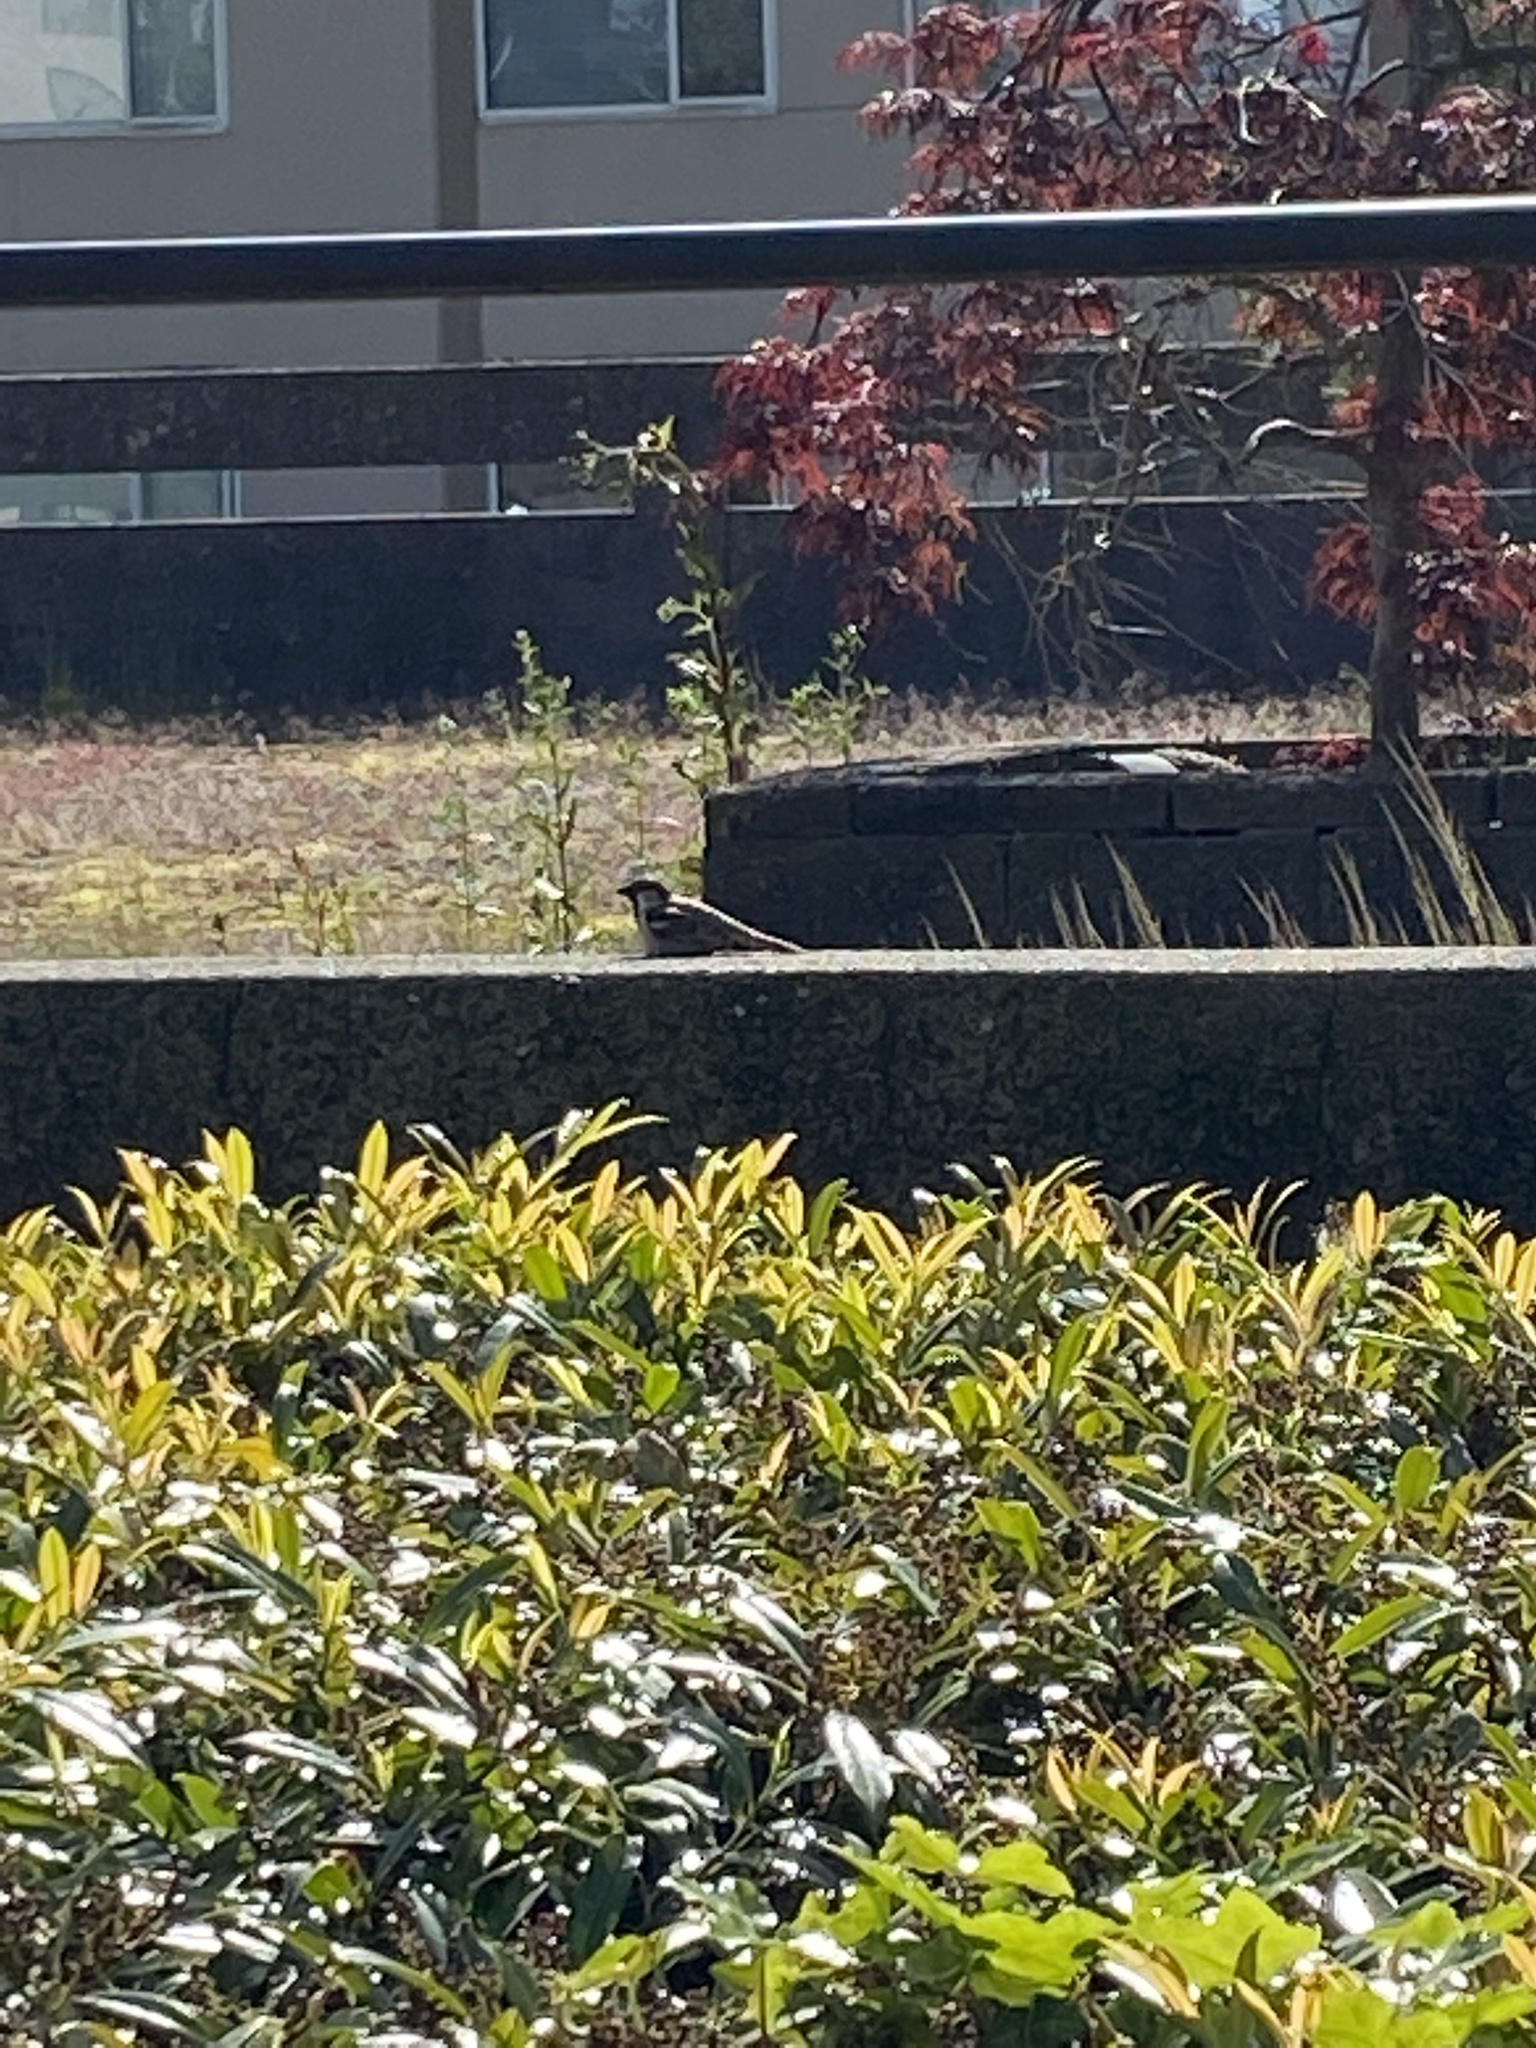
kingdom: Animalia
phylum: Chordata
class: Aves
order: Passeriformes
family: Passeridae
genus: Passer
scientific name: Passer domesticus
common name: House sparrow
